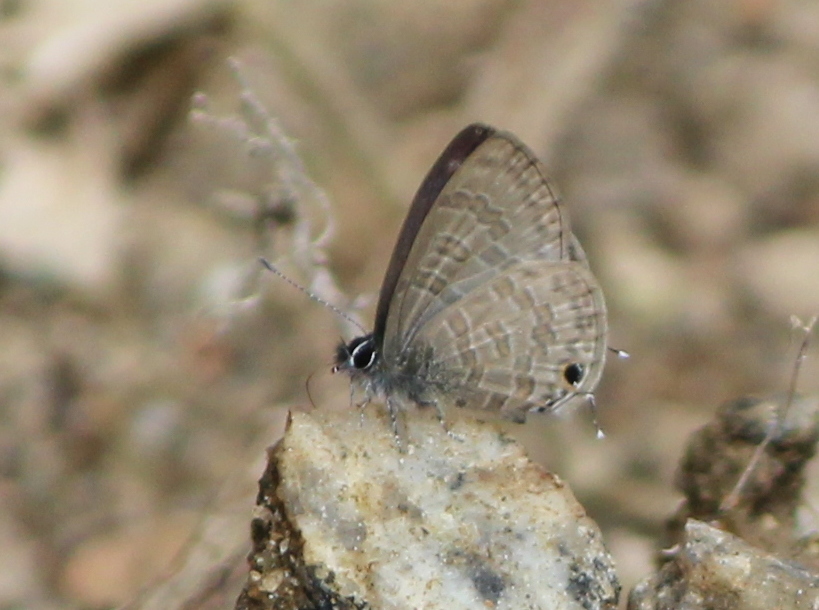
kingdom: Animalia
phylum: Arthropoda
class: Insecta
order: Lepidoptera
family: Lycaenidae
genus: Prosotas
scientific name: Prosotas nora
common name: Common line blue
